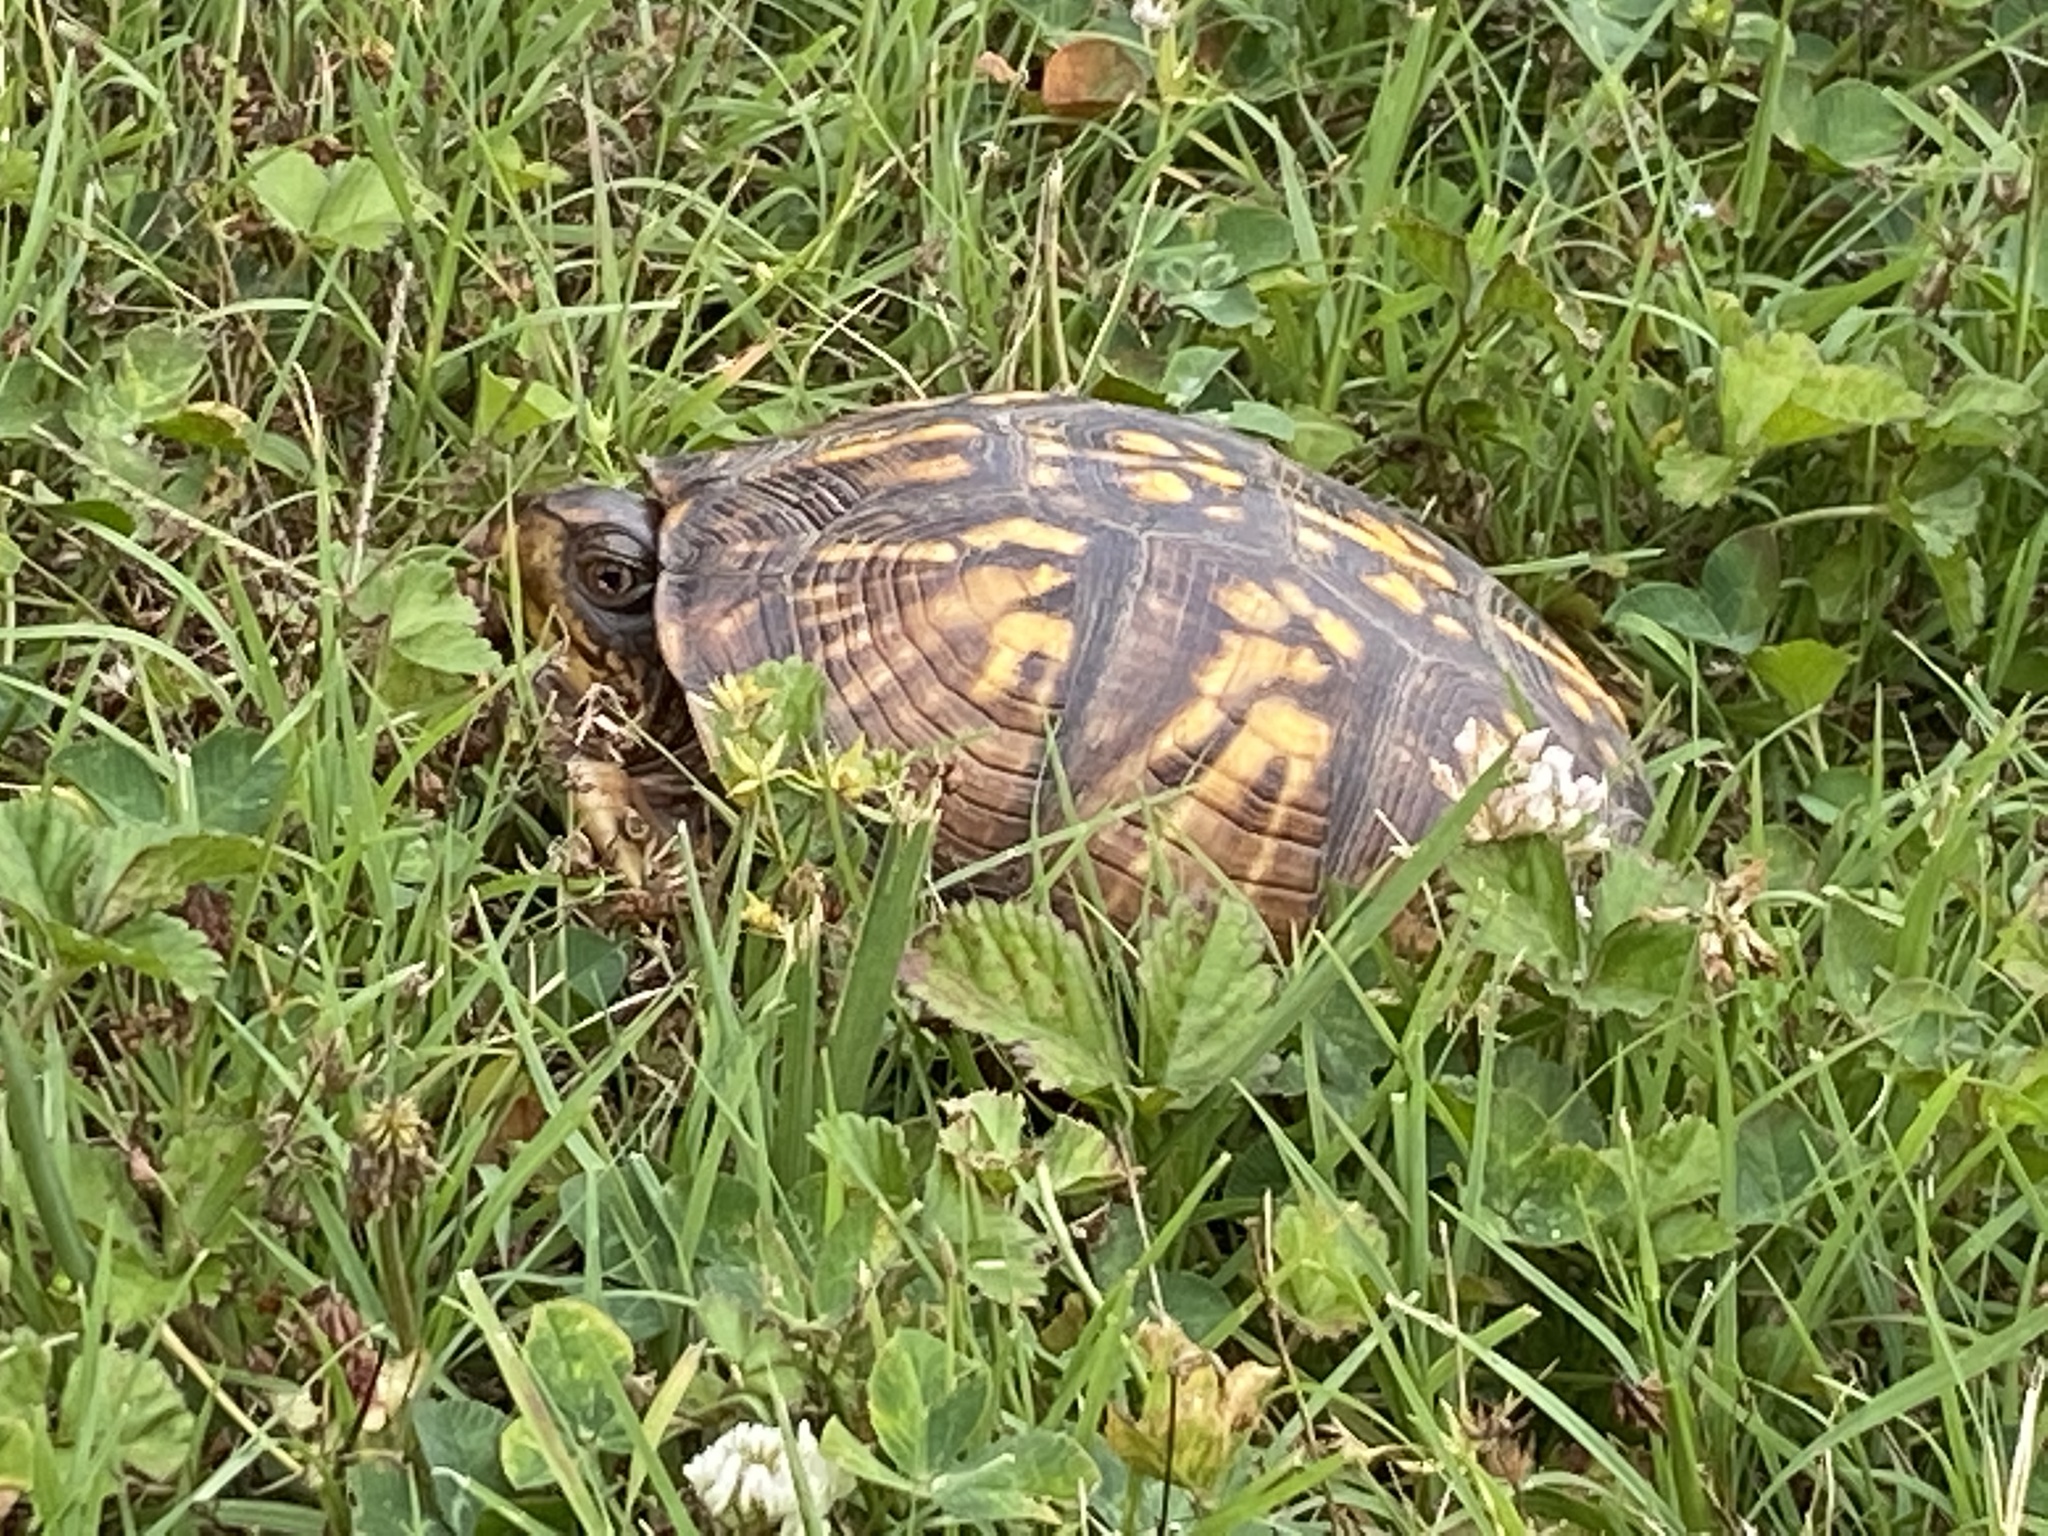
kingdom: Animalia
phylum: Chordata
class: Testudines
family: Emydidae
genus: Terrapene
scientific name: Terrapene carolina
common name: Common box turtle
